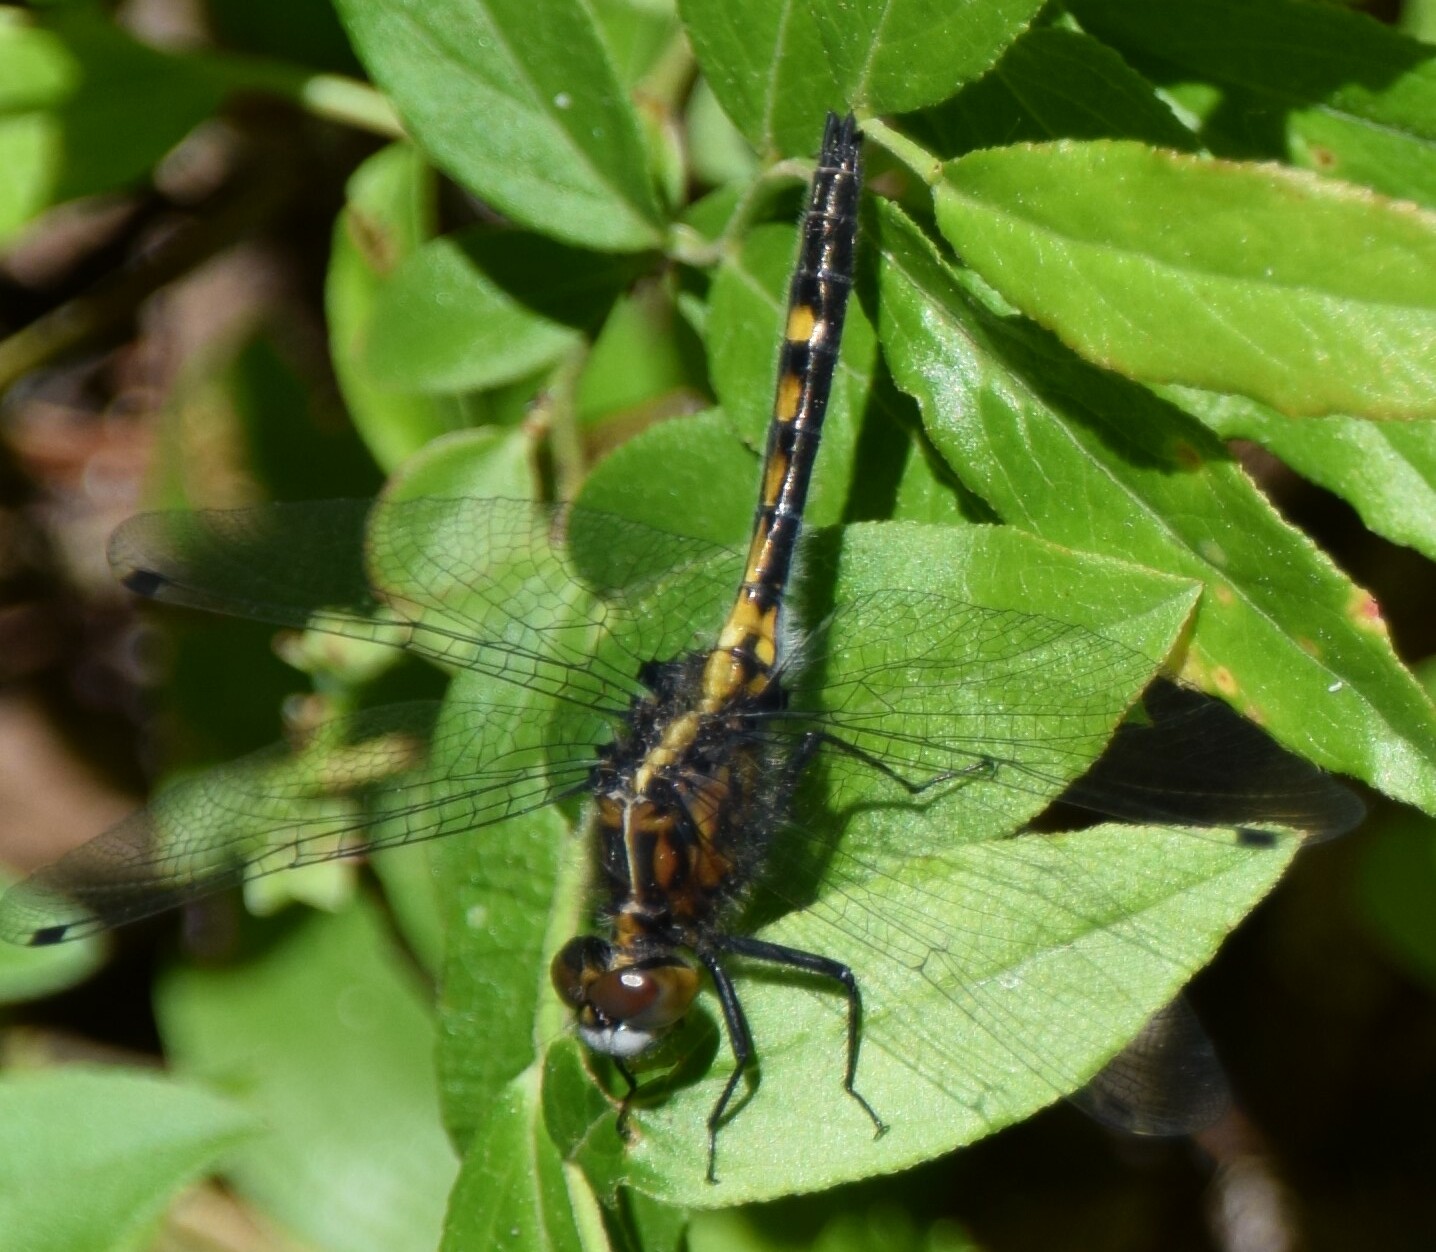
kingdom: Animalia
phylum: Arthropoda
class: Insecta
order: Odonata
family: Libellulidae
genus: Leucorrhinia
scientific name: Leucorrhinia intacta
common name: Dot-tailed whiteface
